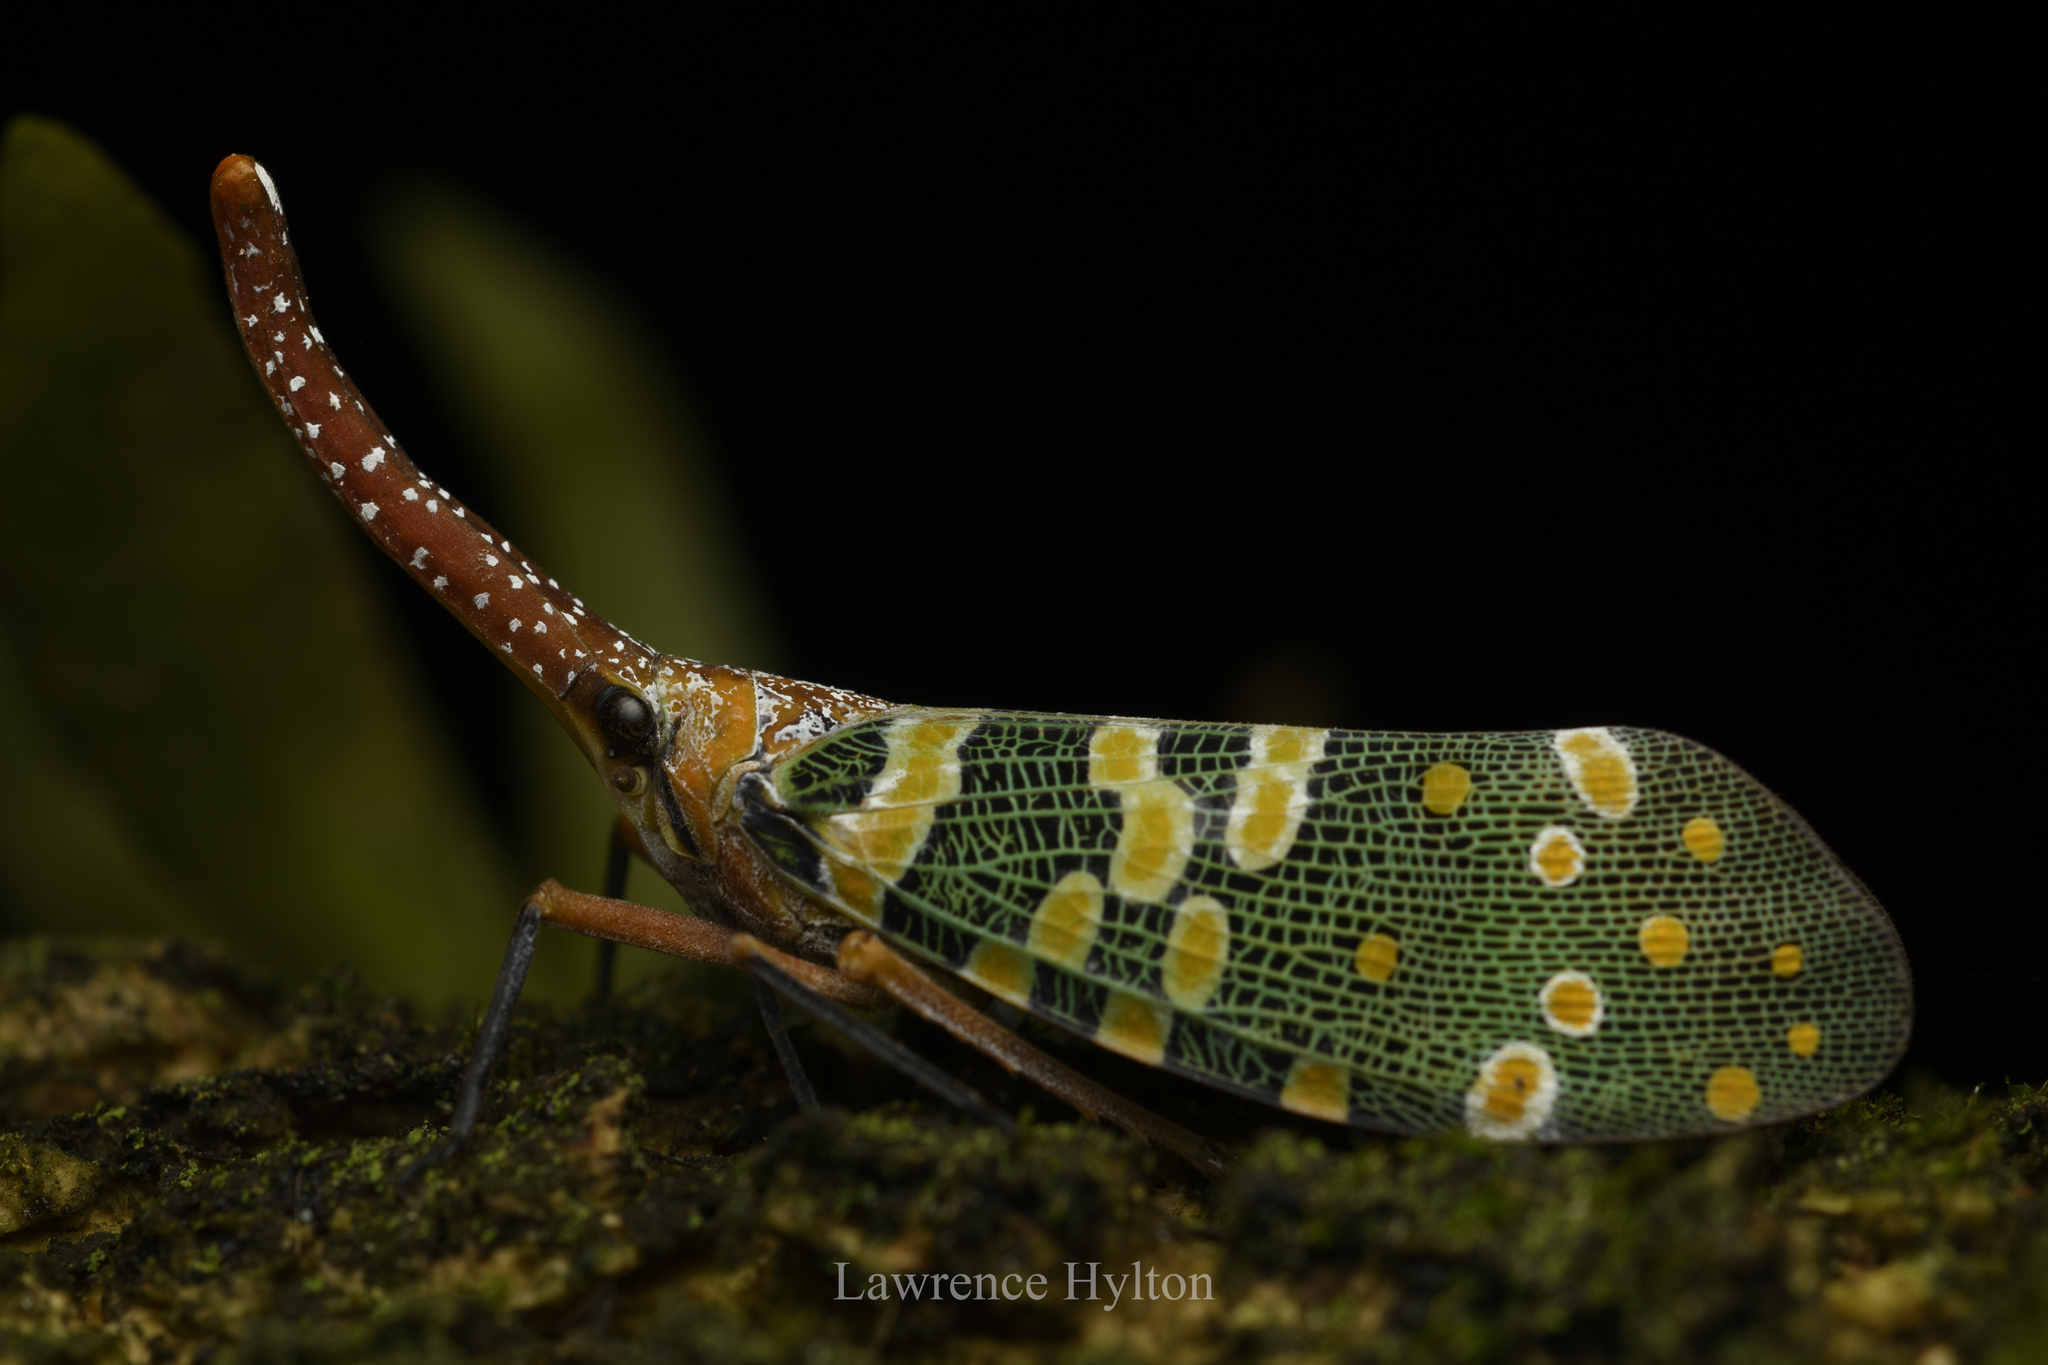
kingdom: Animalia
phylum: Arthropoda
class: Insecta
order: Hemiptera
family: Fulgoridae
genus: Pyrops
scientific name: Pyrops candelaria
